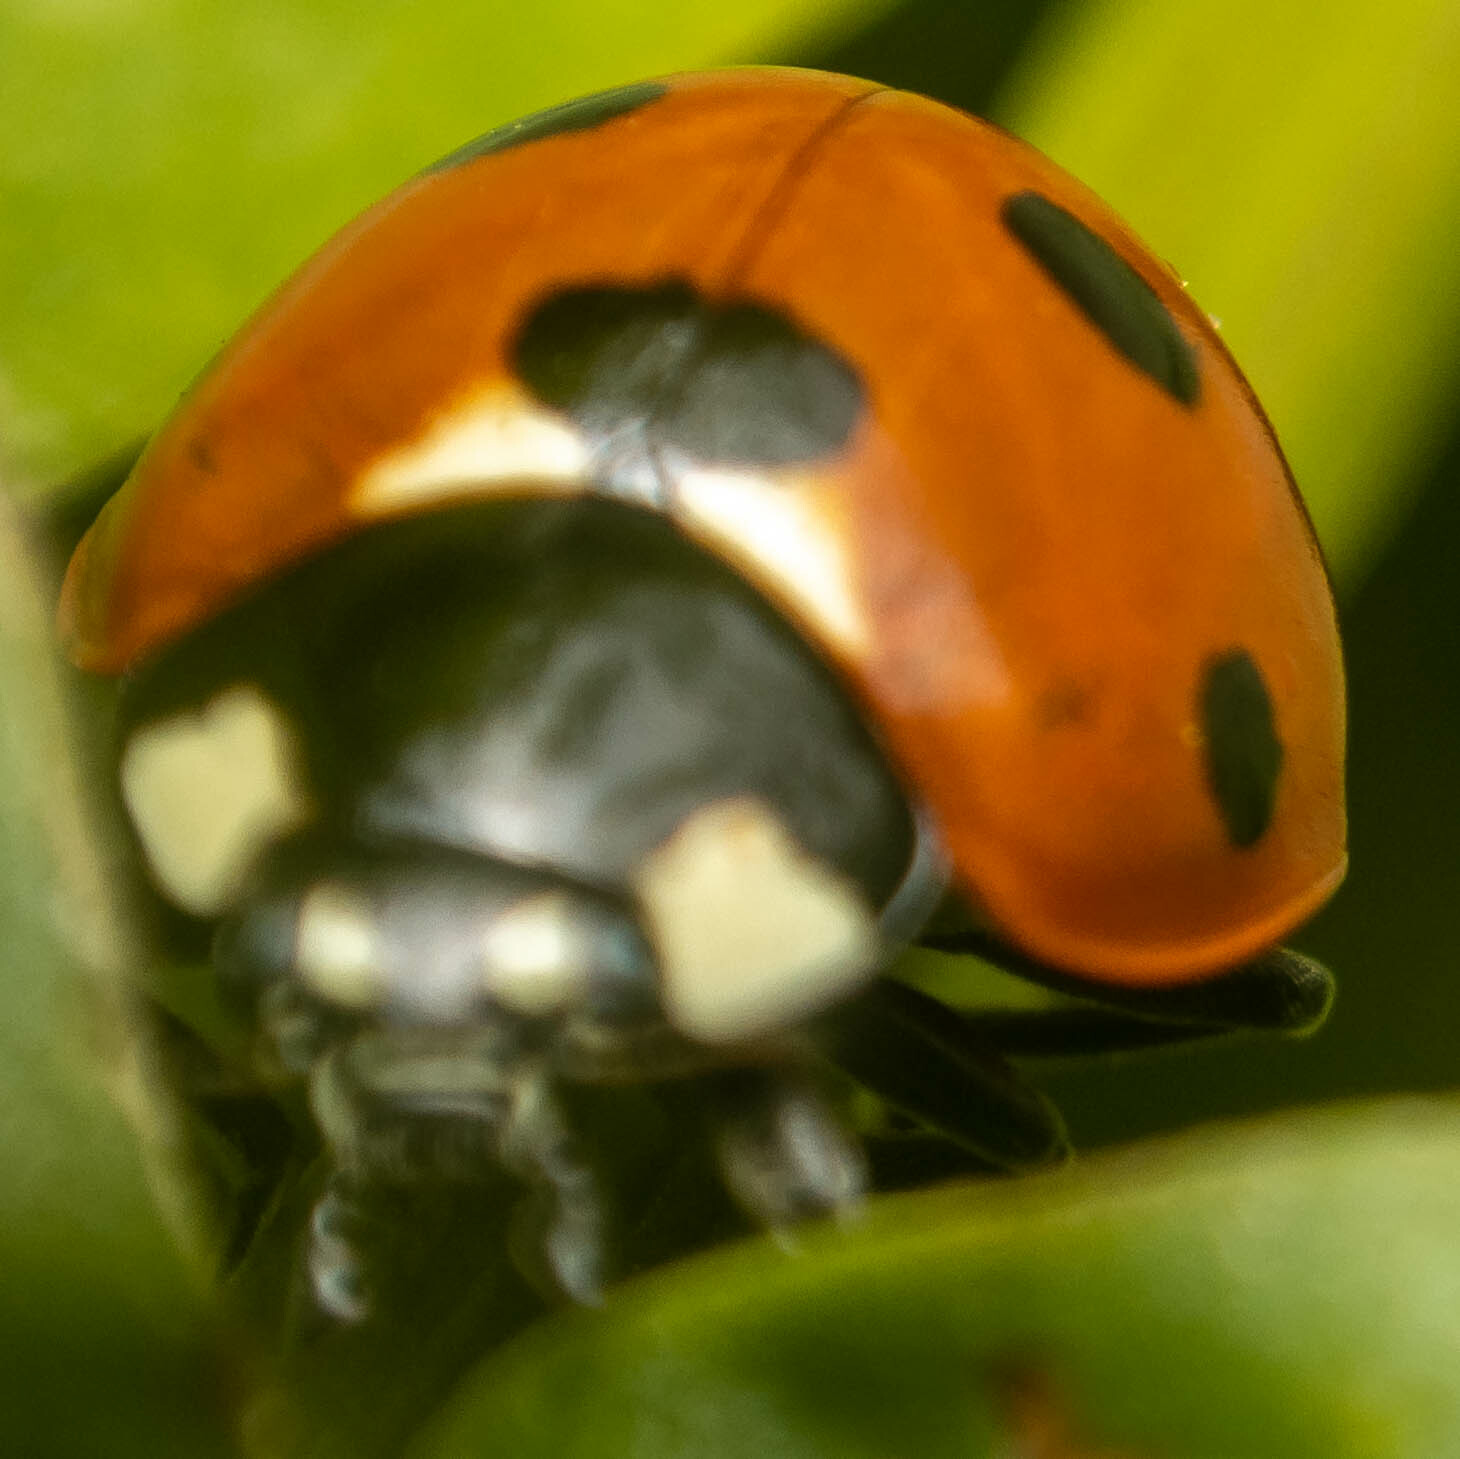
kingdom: Animalia
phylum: Arthropoda
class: Insecta
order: Coleoptera
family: Coccinellidae
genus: Coccinella
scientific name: Coccinella septempunctata
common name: Sevenspotted lady beetle
